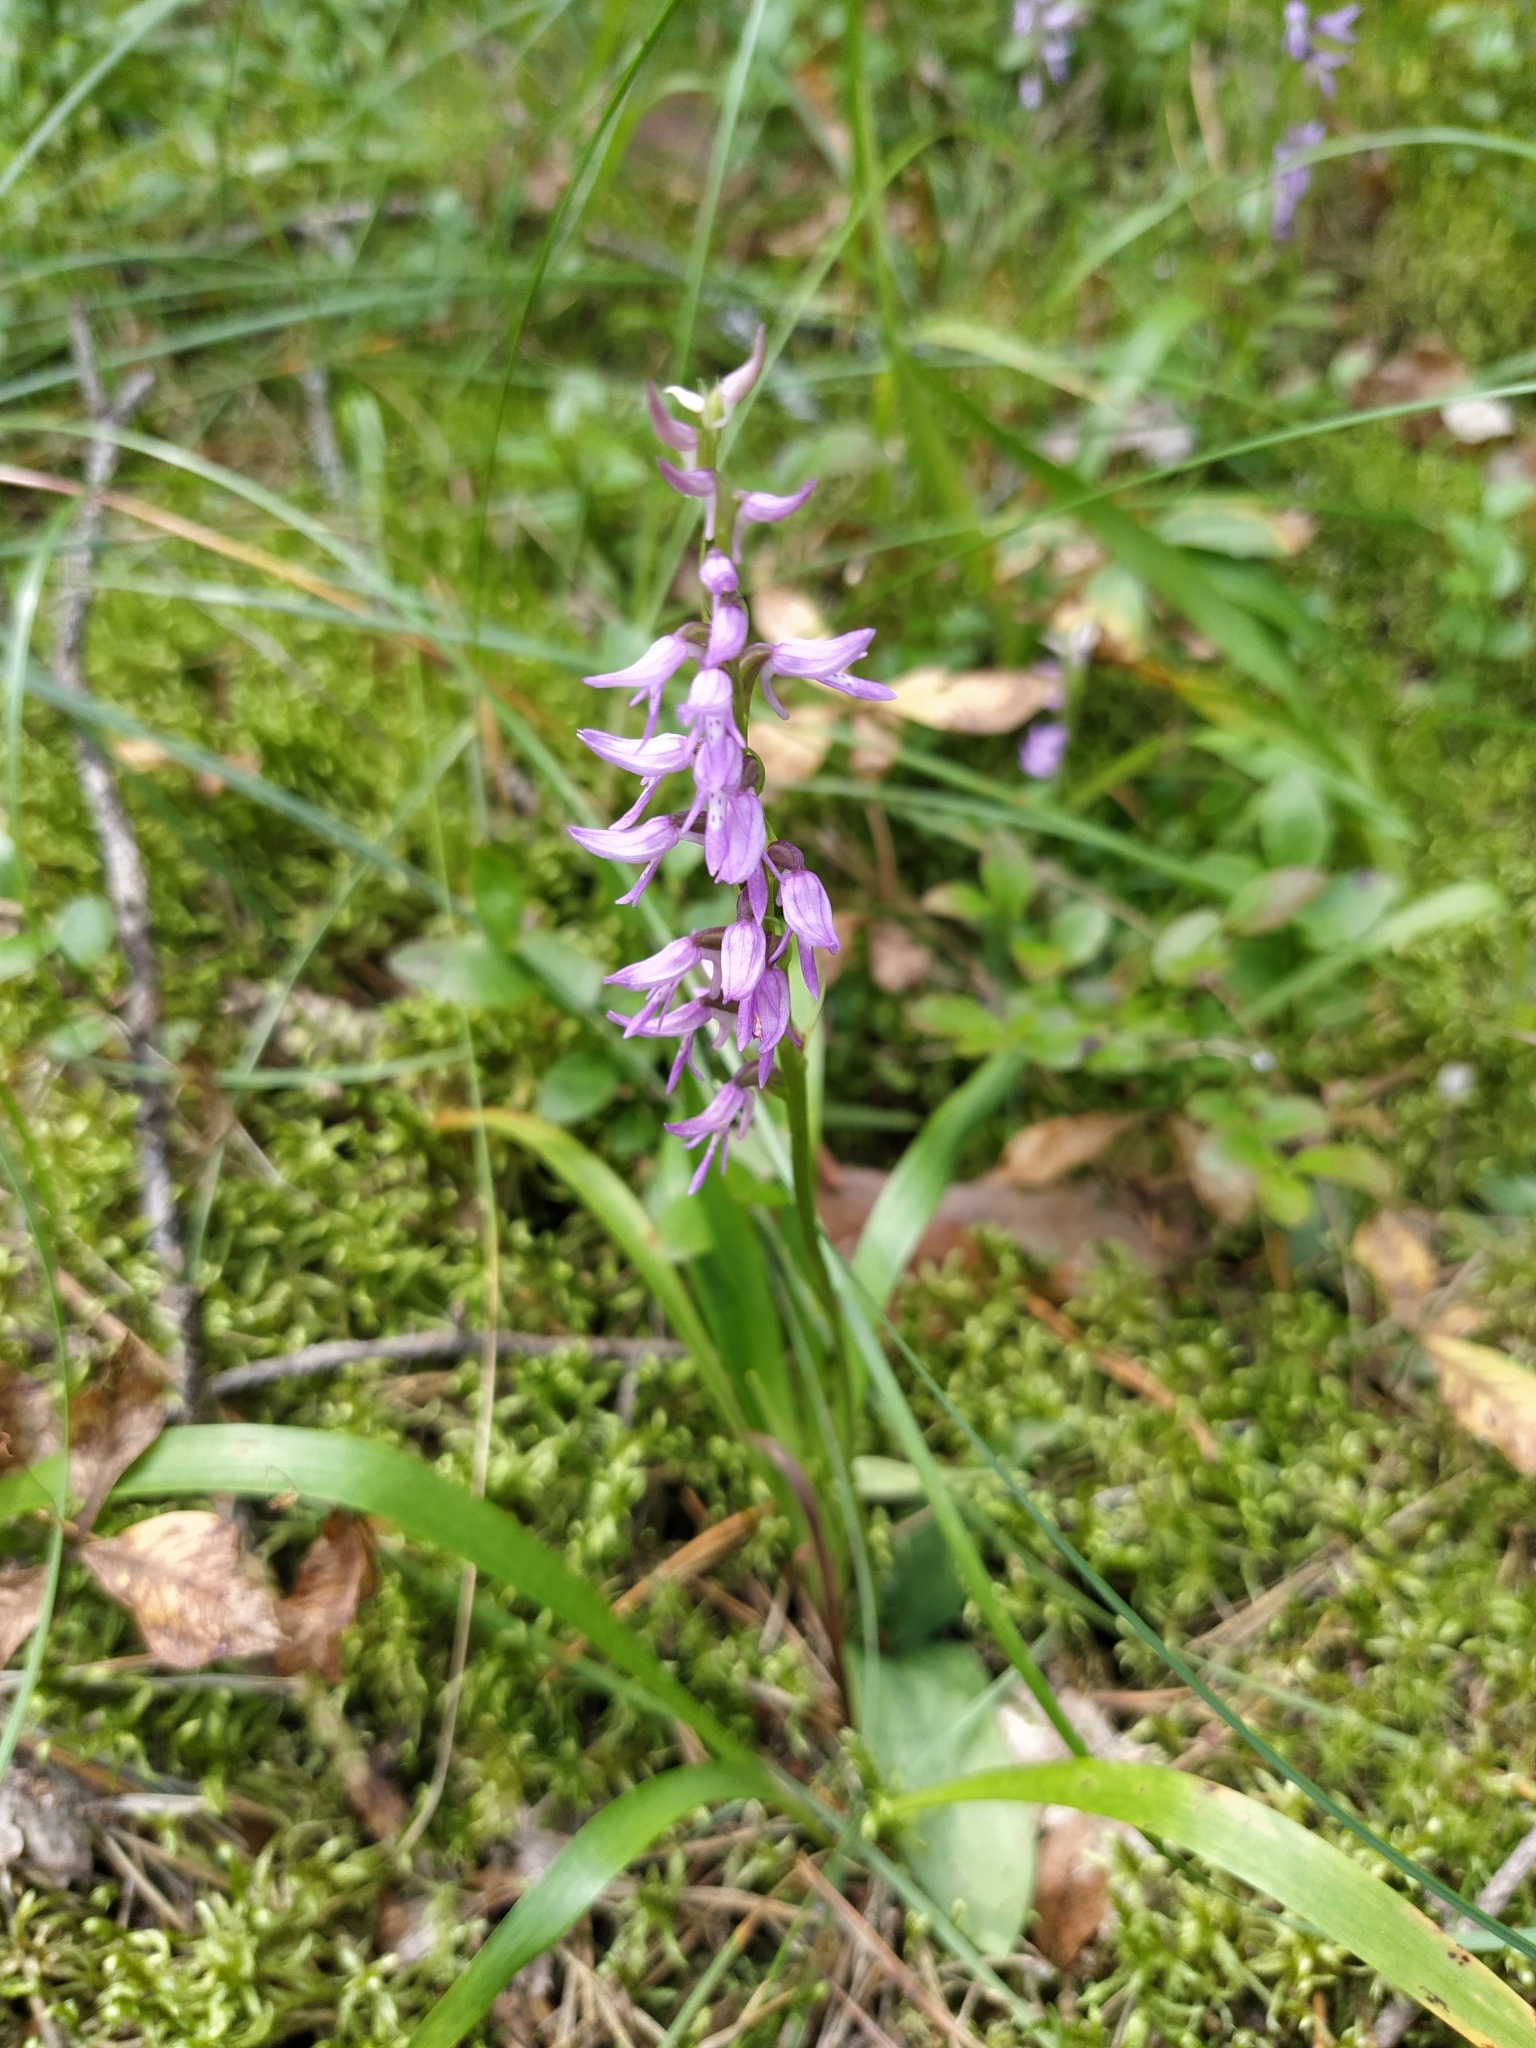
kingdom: Plantae
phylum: Tracheophyta
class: Liliopsida
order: Asparagales
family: Orchidaceae
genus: Hemipilia
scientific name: Hemipilia cucullata
